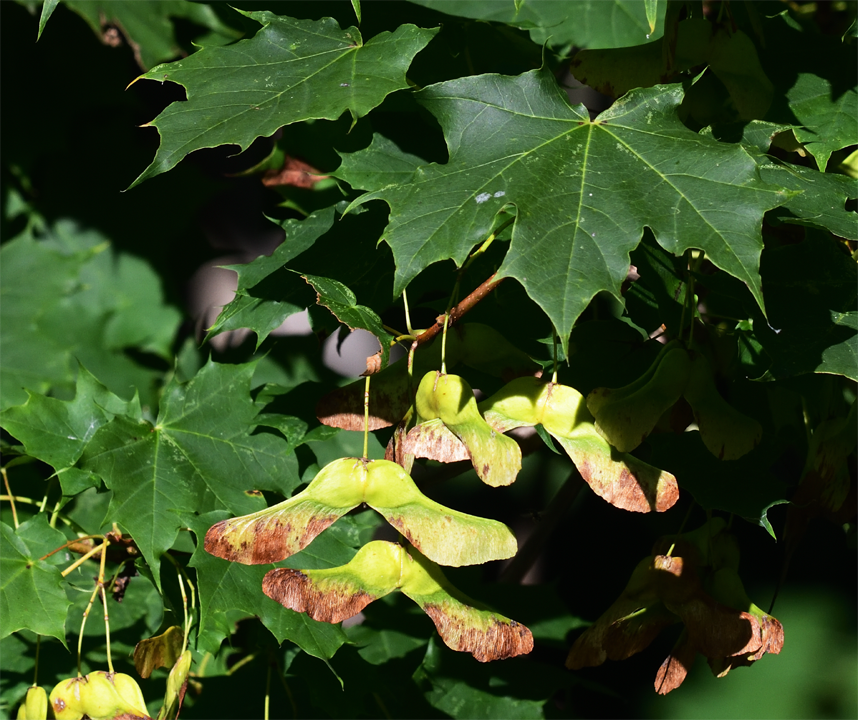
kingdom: Plantae
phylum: Tracheophyta
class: Magnoliopsida
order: Sapindales
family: Sapindaceae
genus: Acer
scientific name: Acer platanoides
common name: Norway maple
